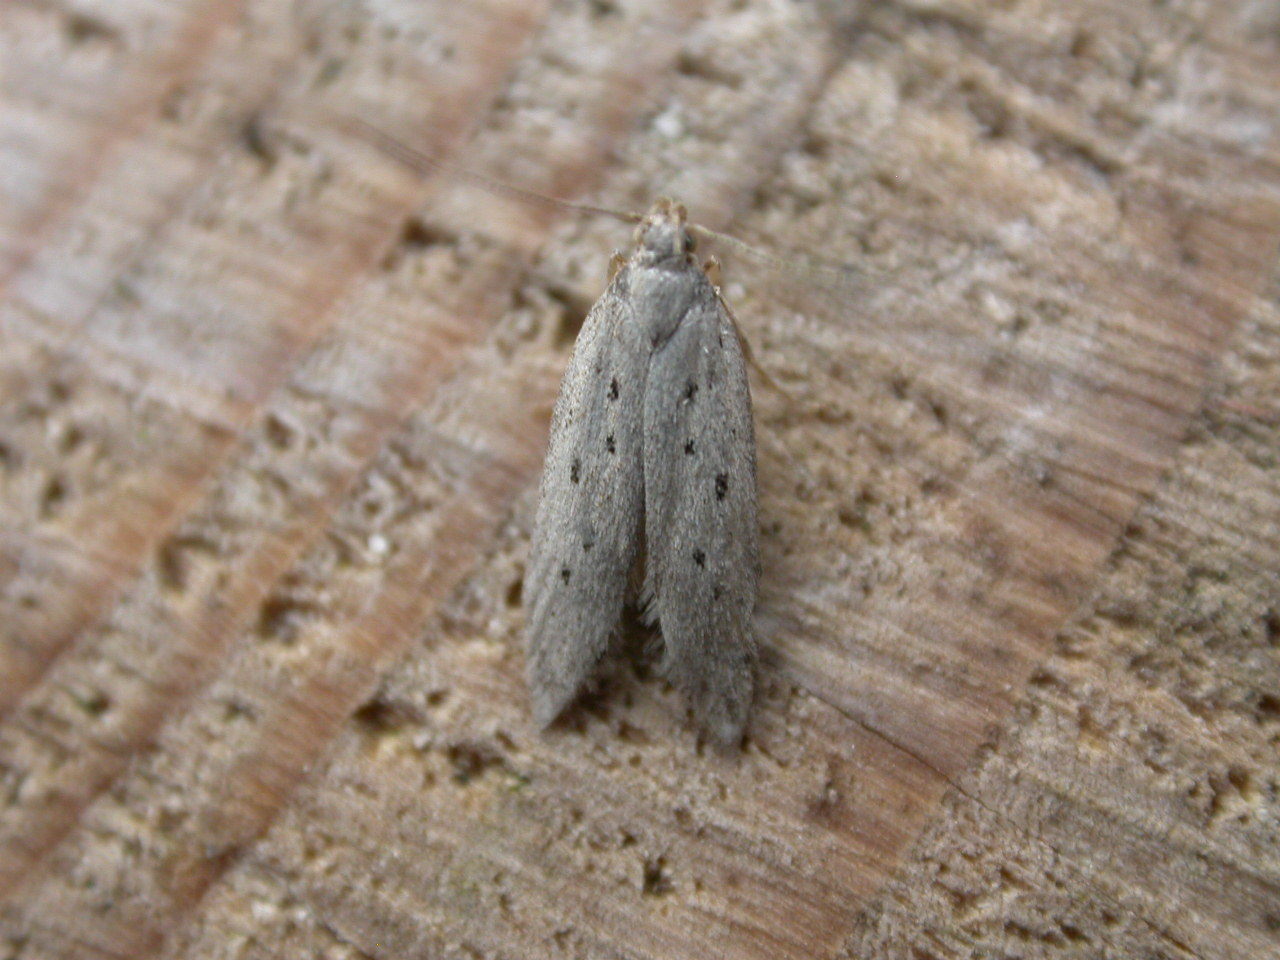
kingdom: Animalia
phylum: Arthropoda
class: Insecta
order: Lepidoptera
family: Gelechiidae
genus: Athrips
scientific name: Athrips mouffetella
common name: Dotted grey groundling
